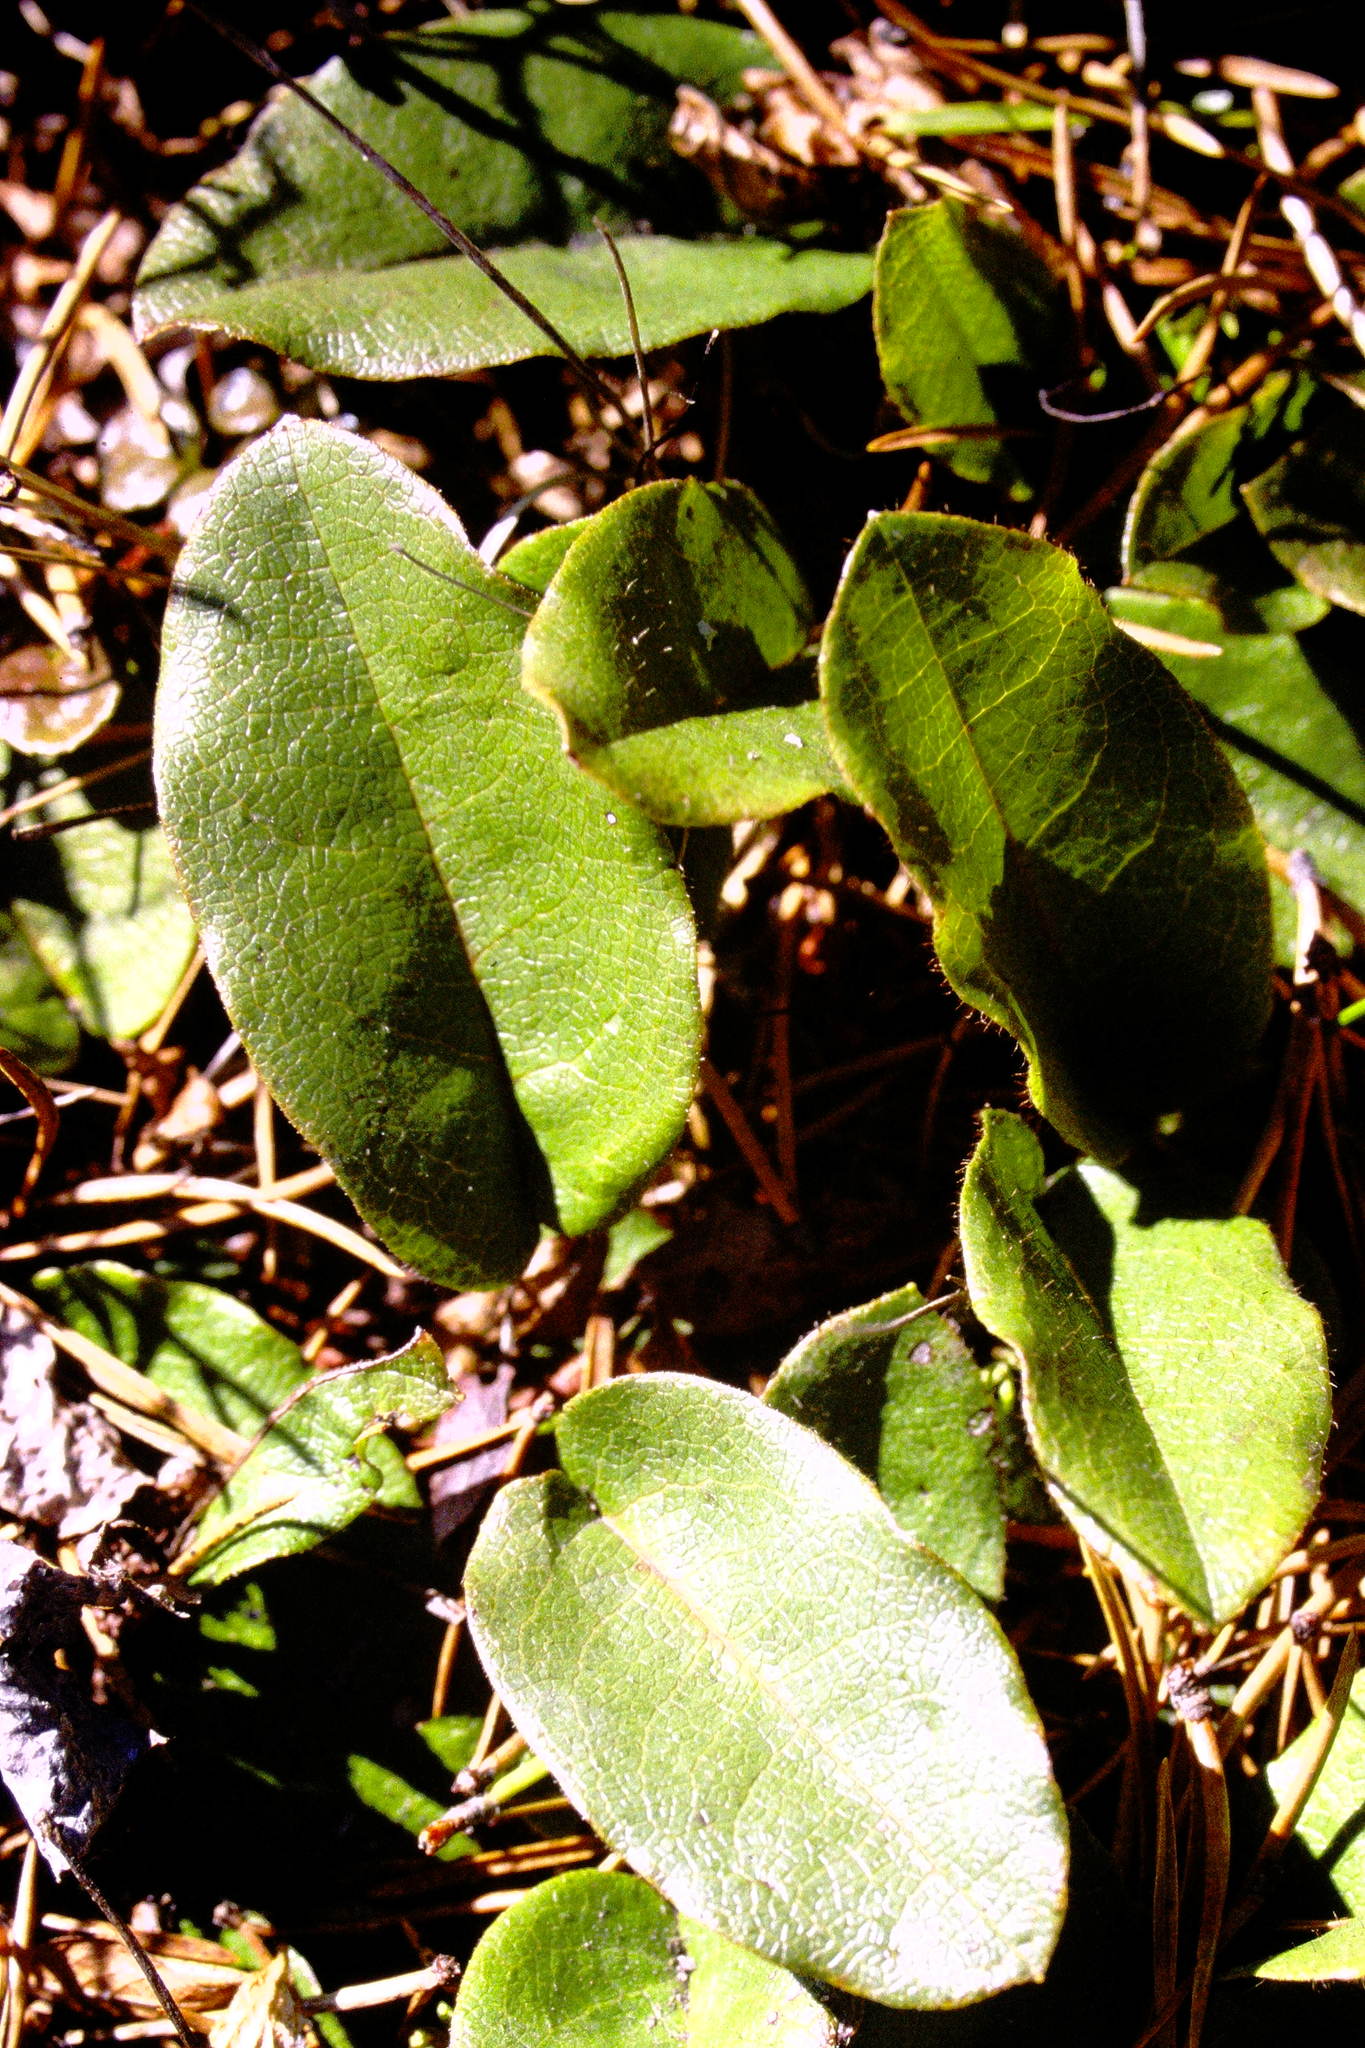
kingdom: Plantae
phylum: Tracheophyta
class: Magnoliopsida
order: Ericales
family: Ericaceae
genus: Epigaea
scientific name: Epigaea repens
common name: Gravelroot
